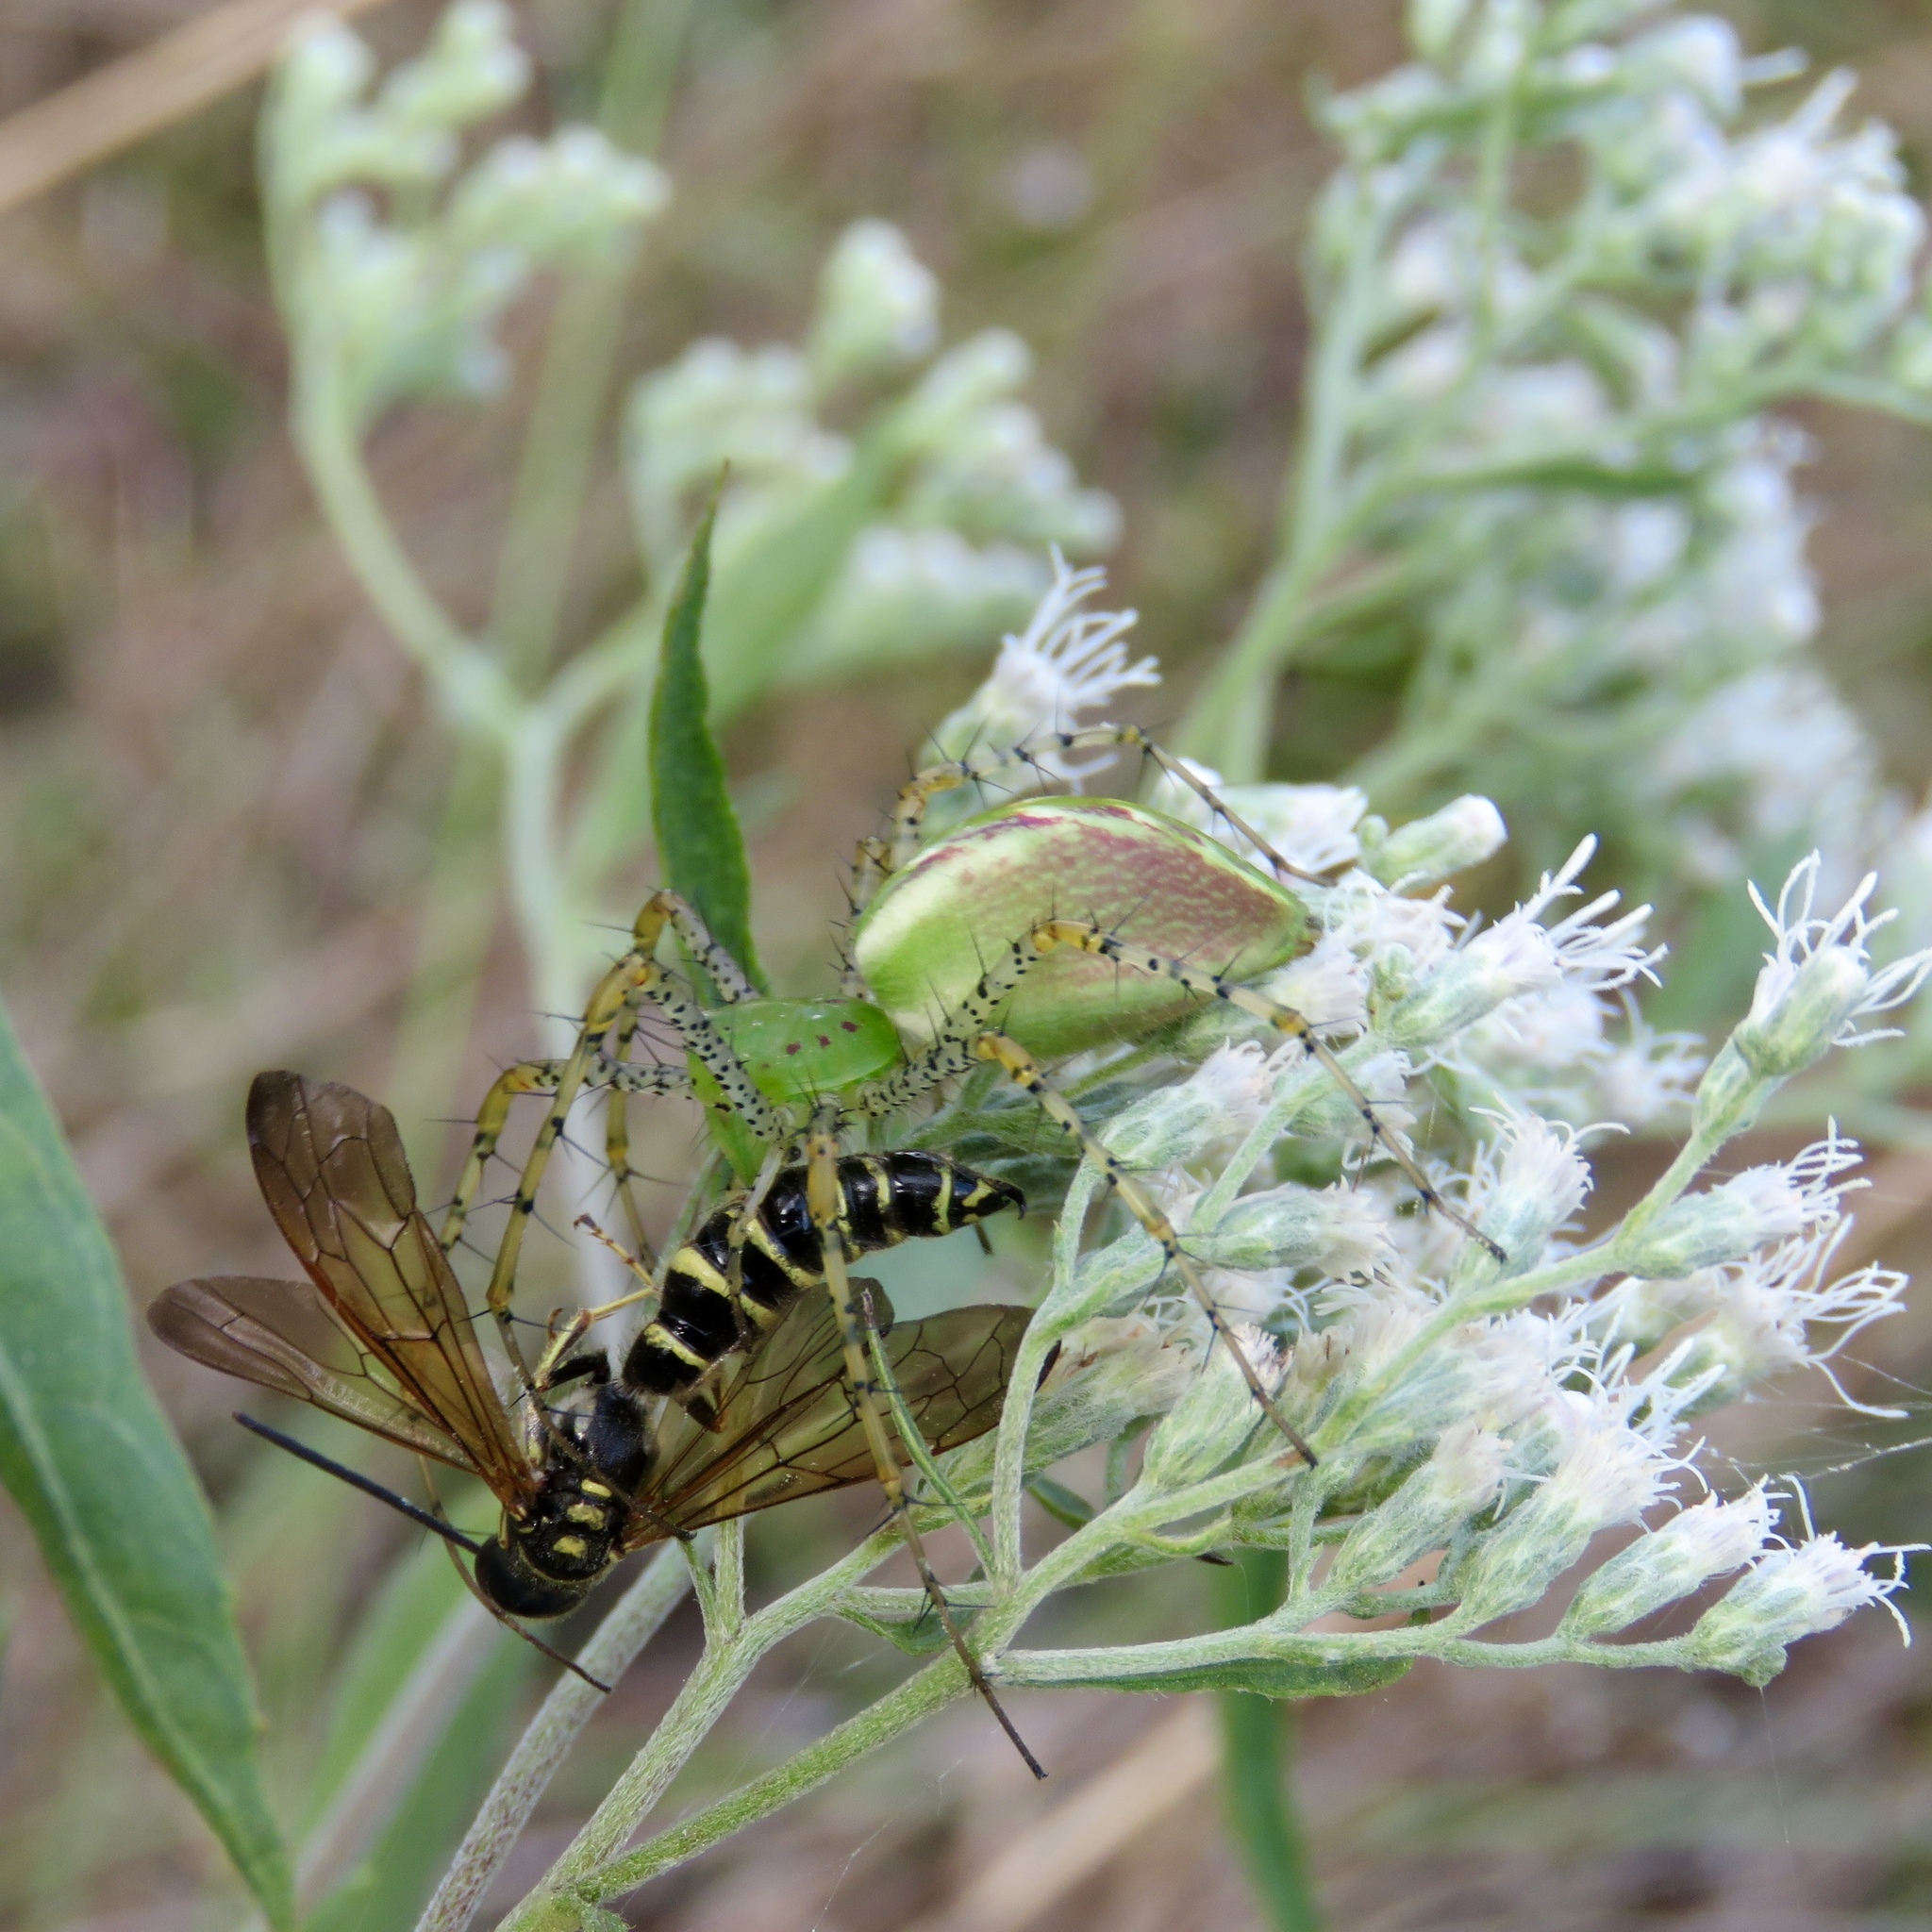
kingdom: Animalia
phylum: Arthropoda
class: Arachnida
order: Araneae
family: Oxyopidae
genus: Peucetia
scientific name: Peucetia viridans
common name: Lynx spiders
